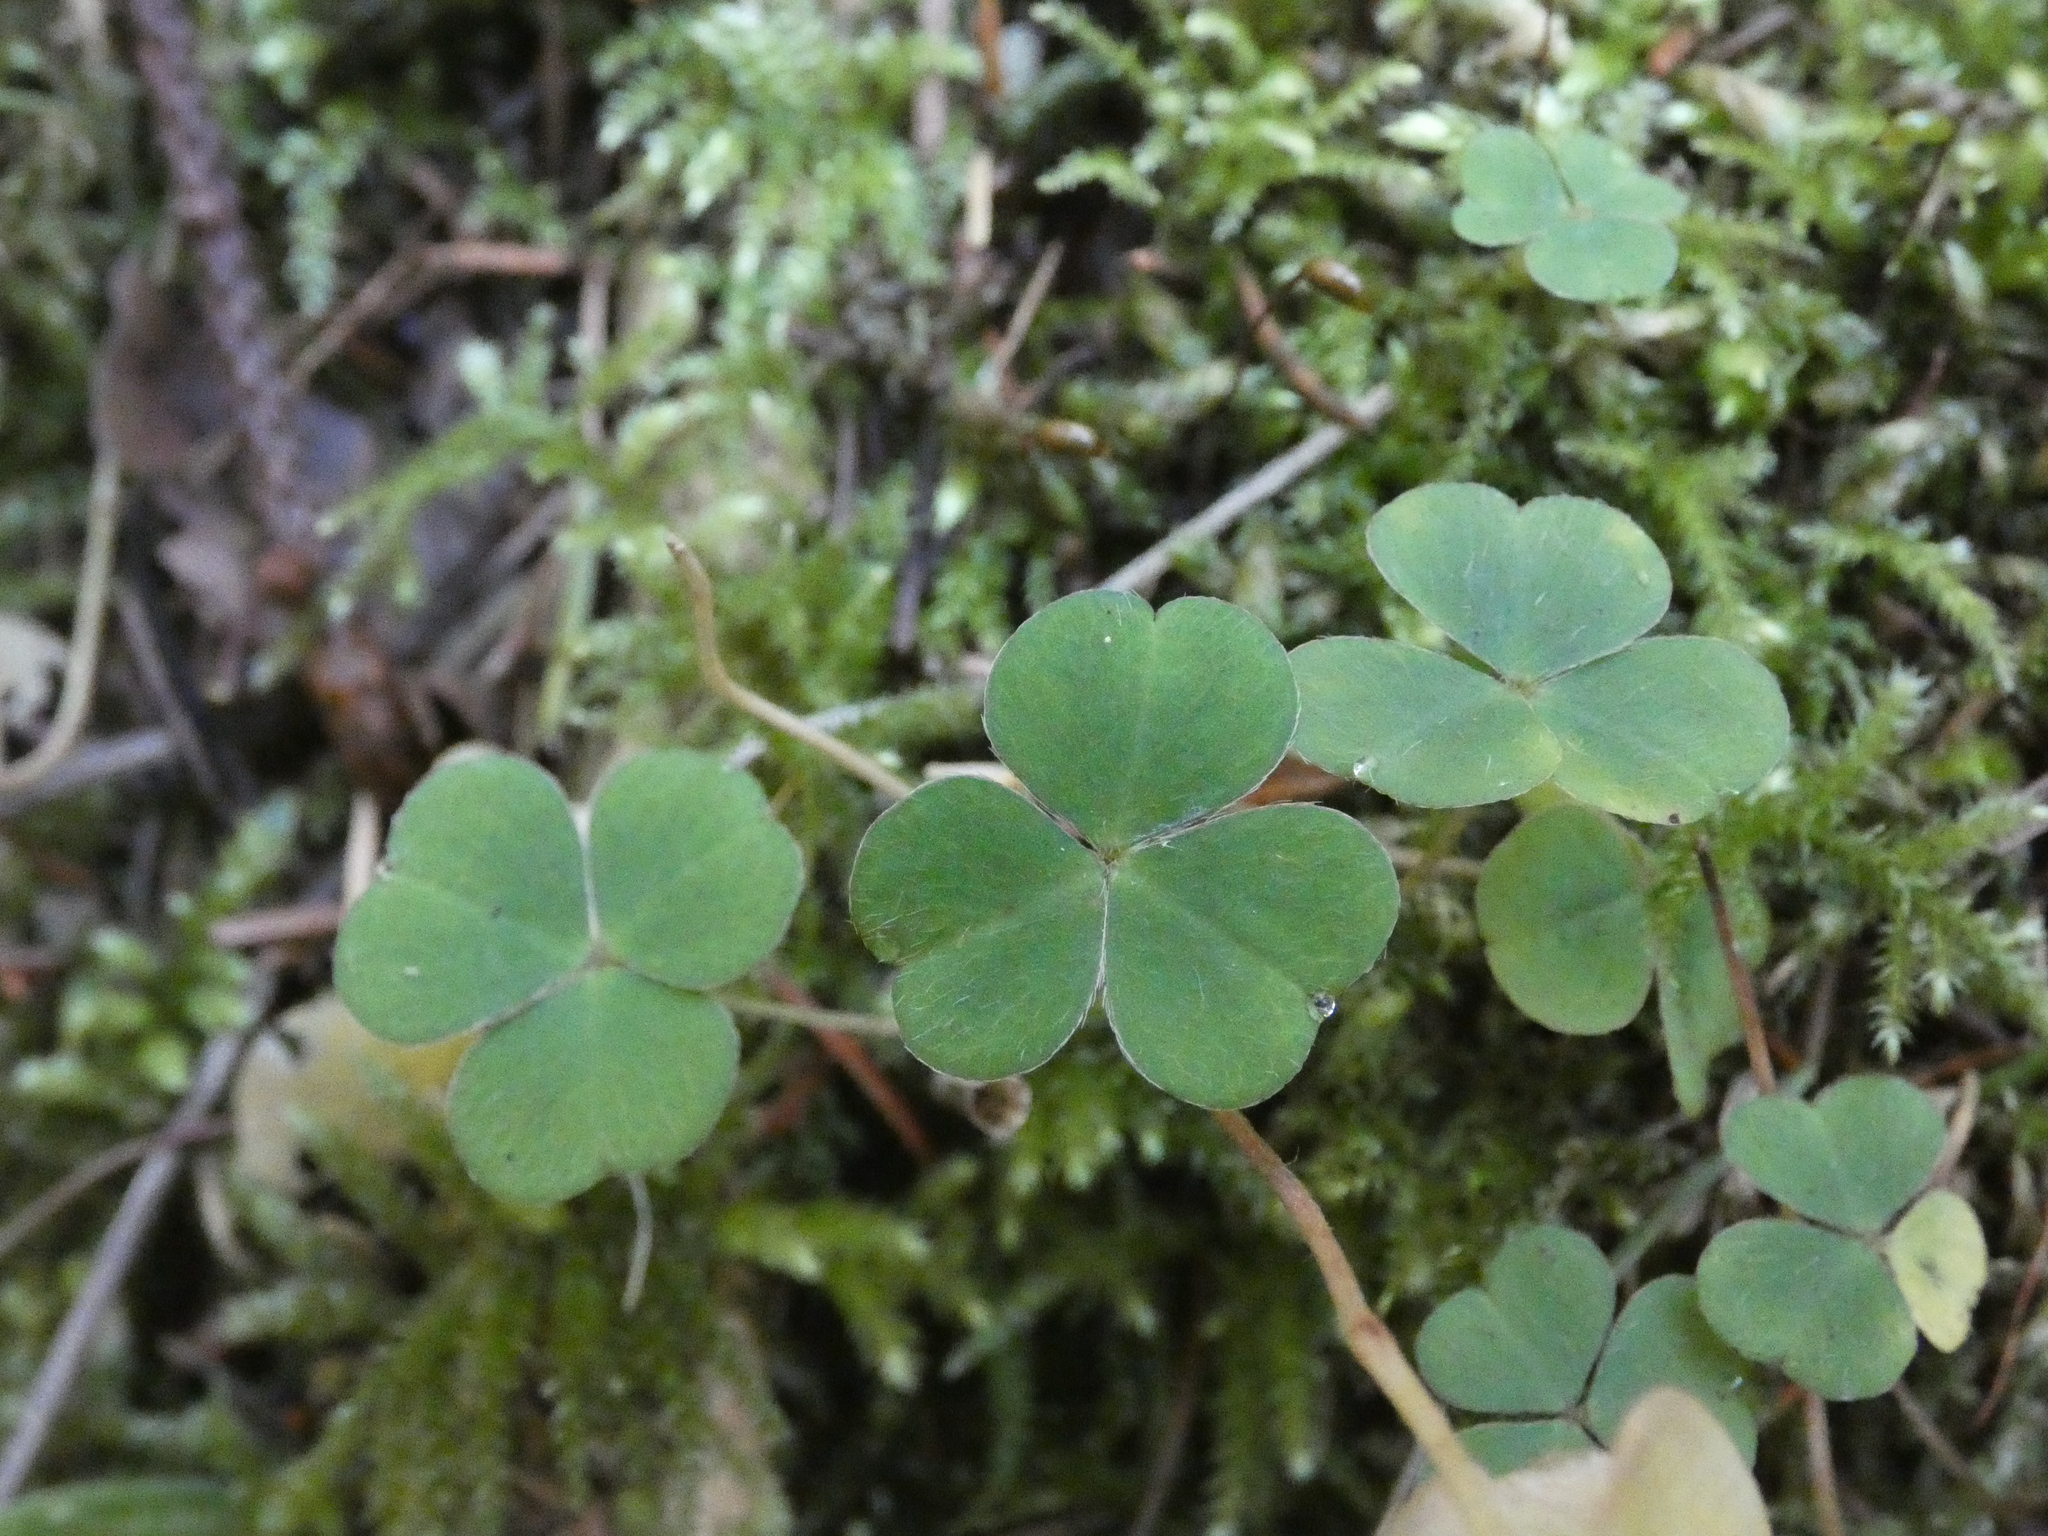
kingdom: Plantae
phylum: Tracheophyta
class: Magnoliopsida
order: Oxalidales
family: Oxalidaceae
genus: Oxalis
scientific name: Oxalis acetosella
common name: Wood-sorrel
